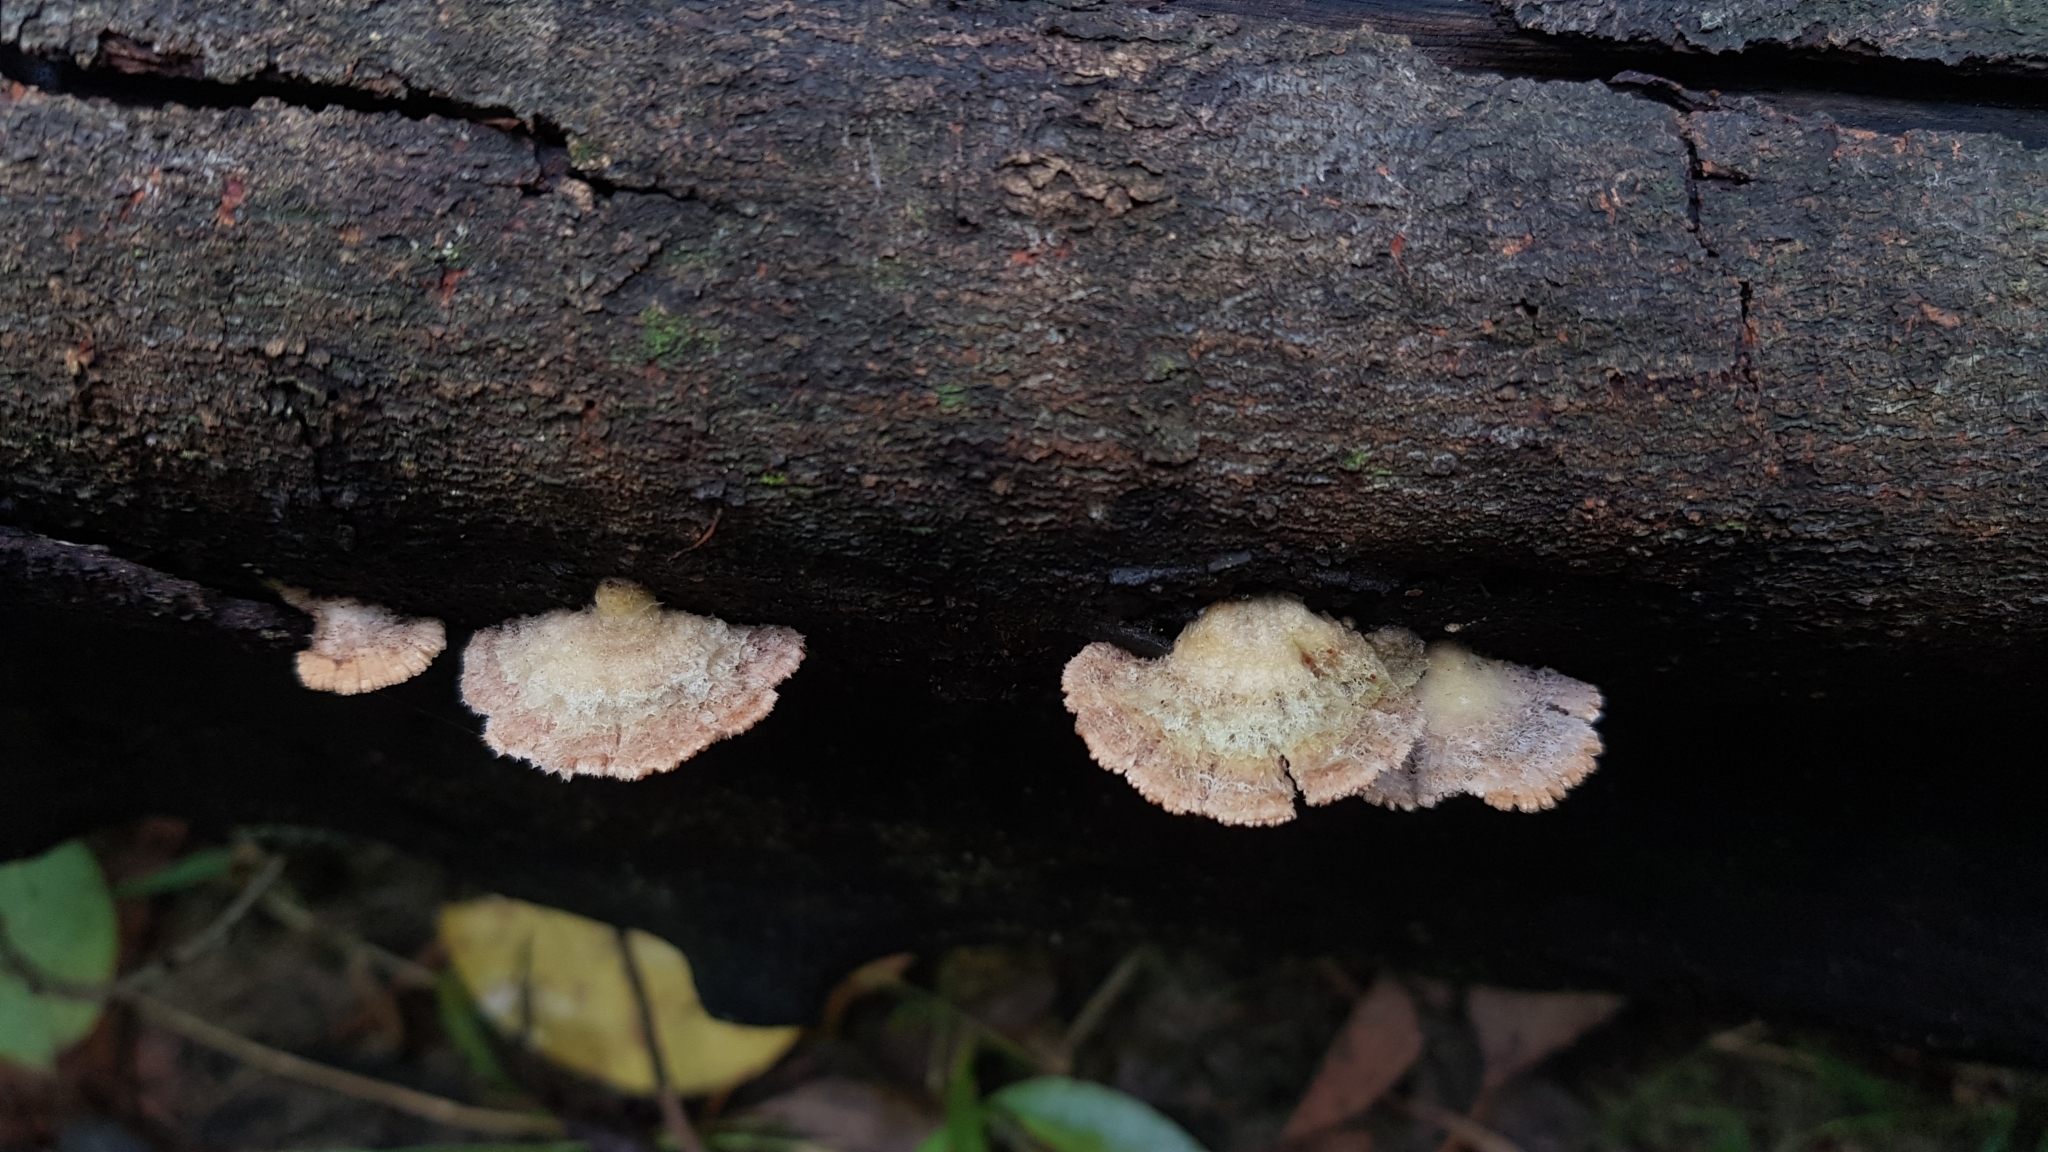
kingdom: Fungi
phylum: Basidiomycota
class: Agaricomycetes
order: Agaricales
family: Schizophyllaceae
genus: Schizophyllum
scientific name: Schizophyllum commune
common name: Common porecrust
